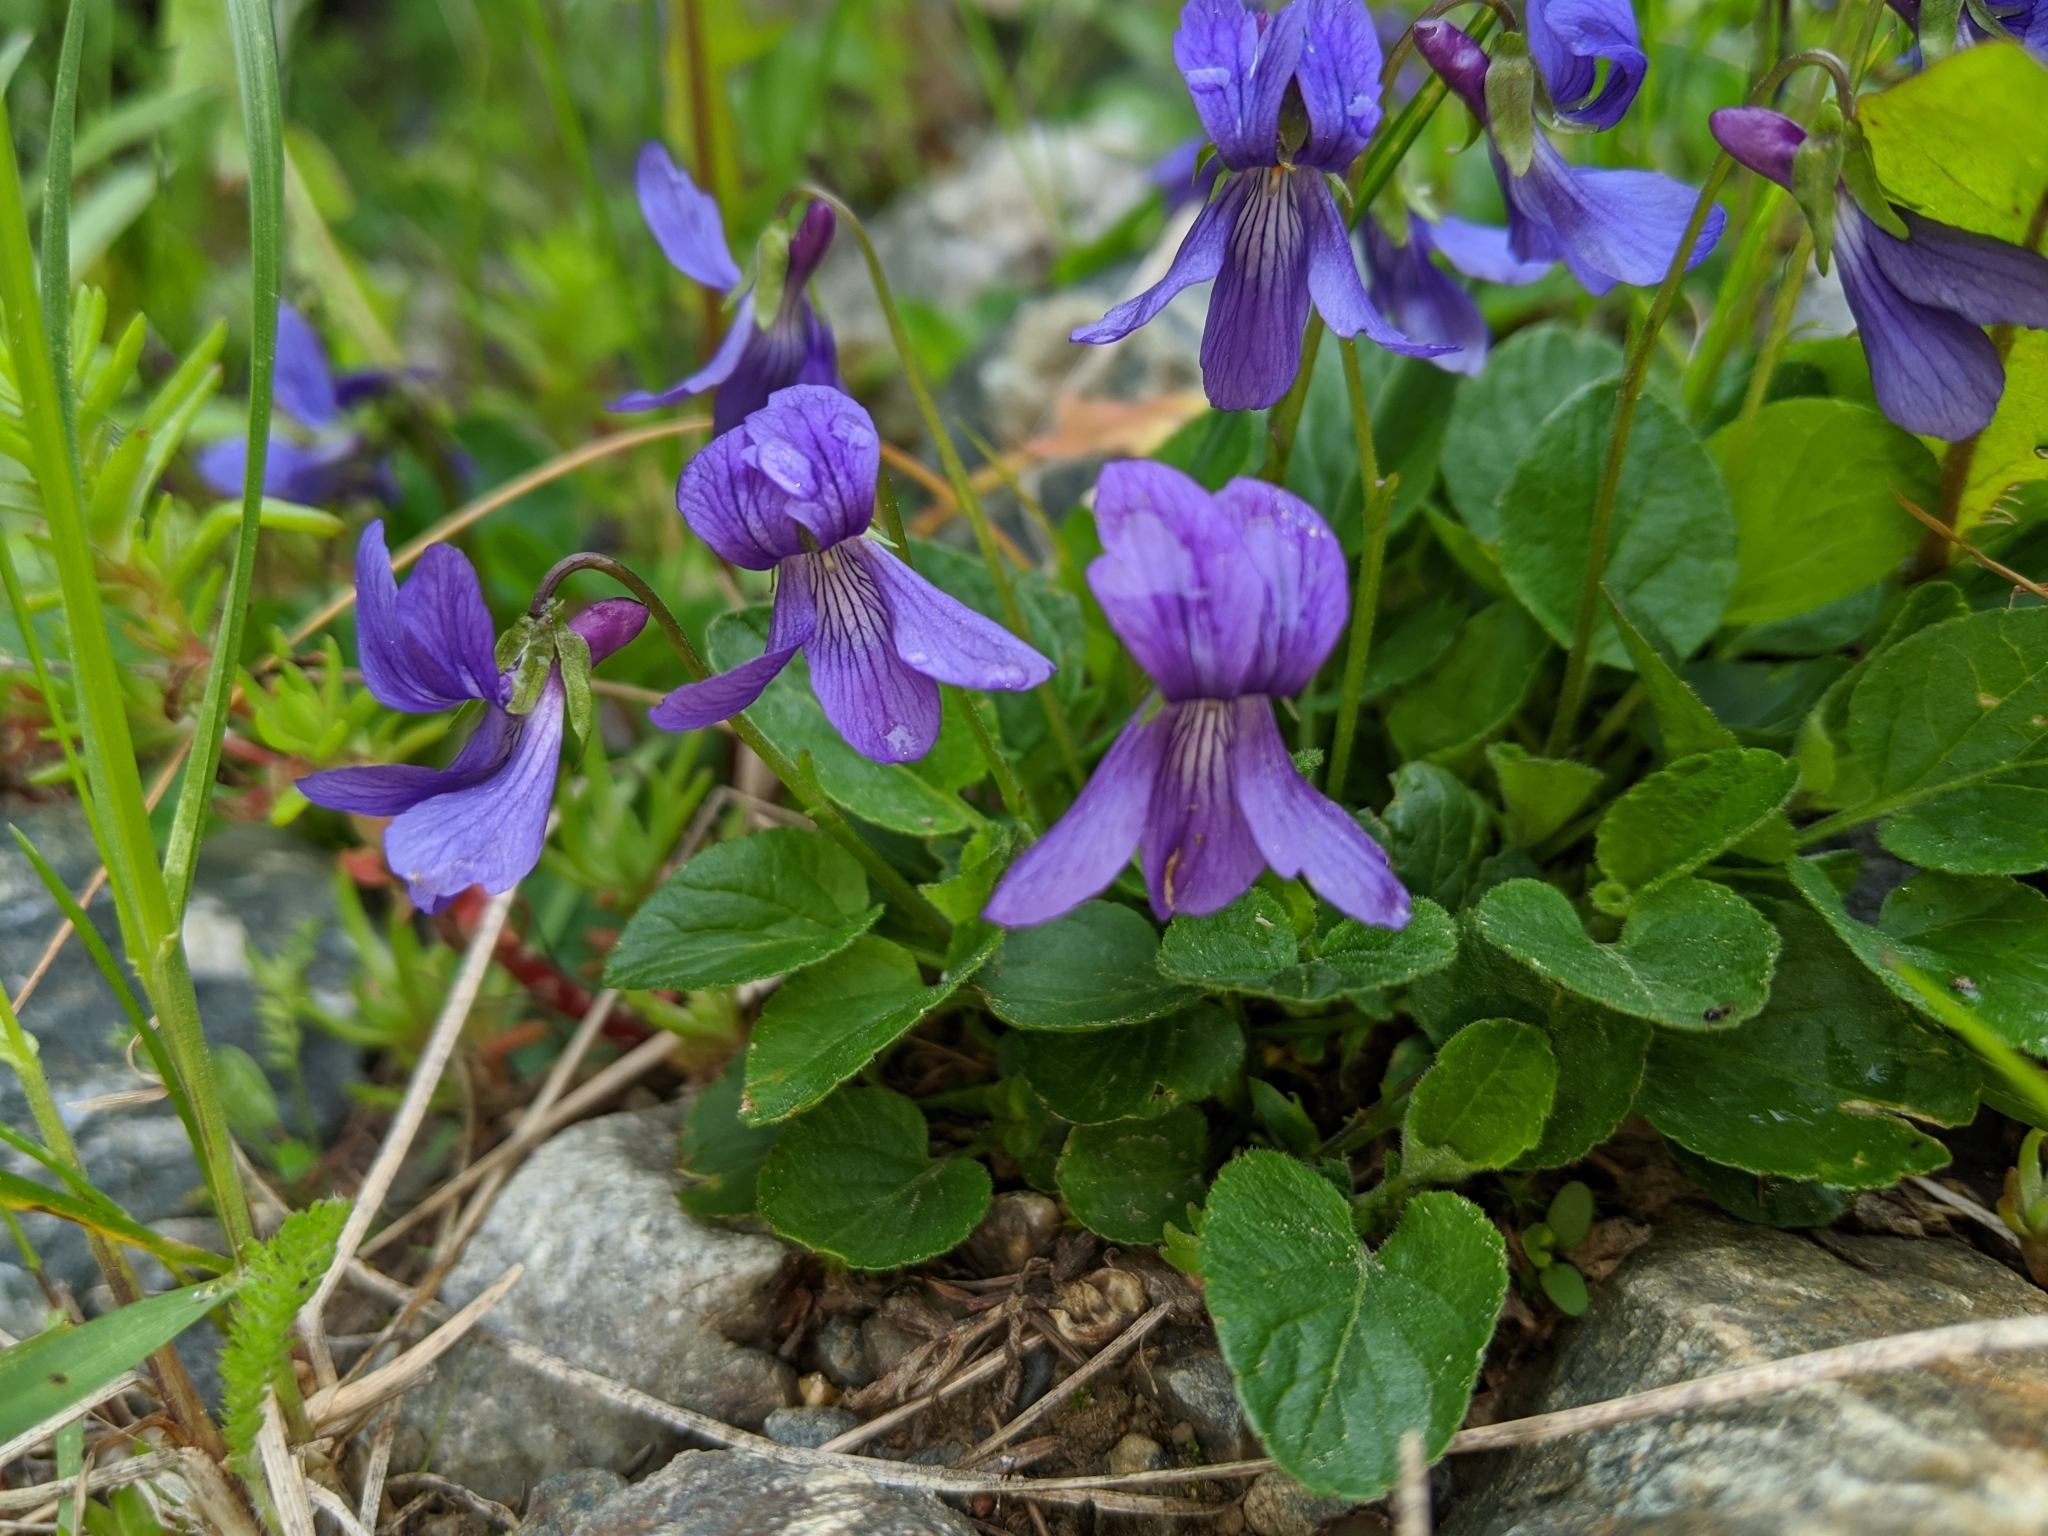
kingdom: Plantae
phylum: Tracheophyta
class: Magnoliopsida
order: Malpighiales
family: Violaceae
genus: Viola
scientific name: Viola adunca
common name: Sand violet
